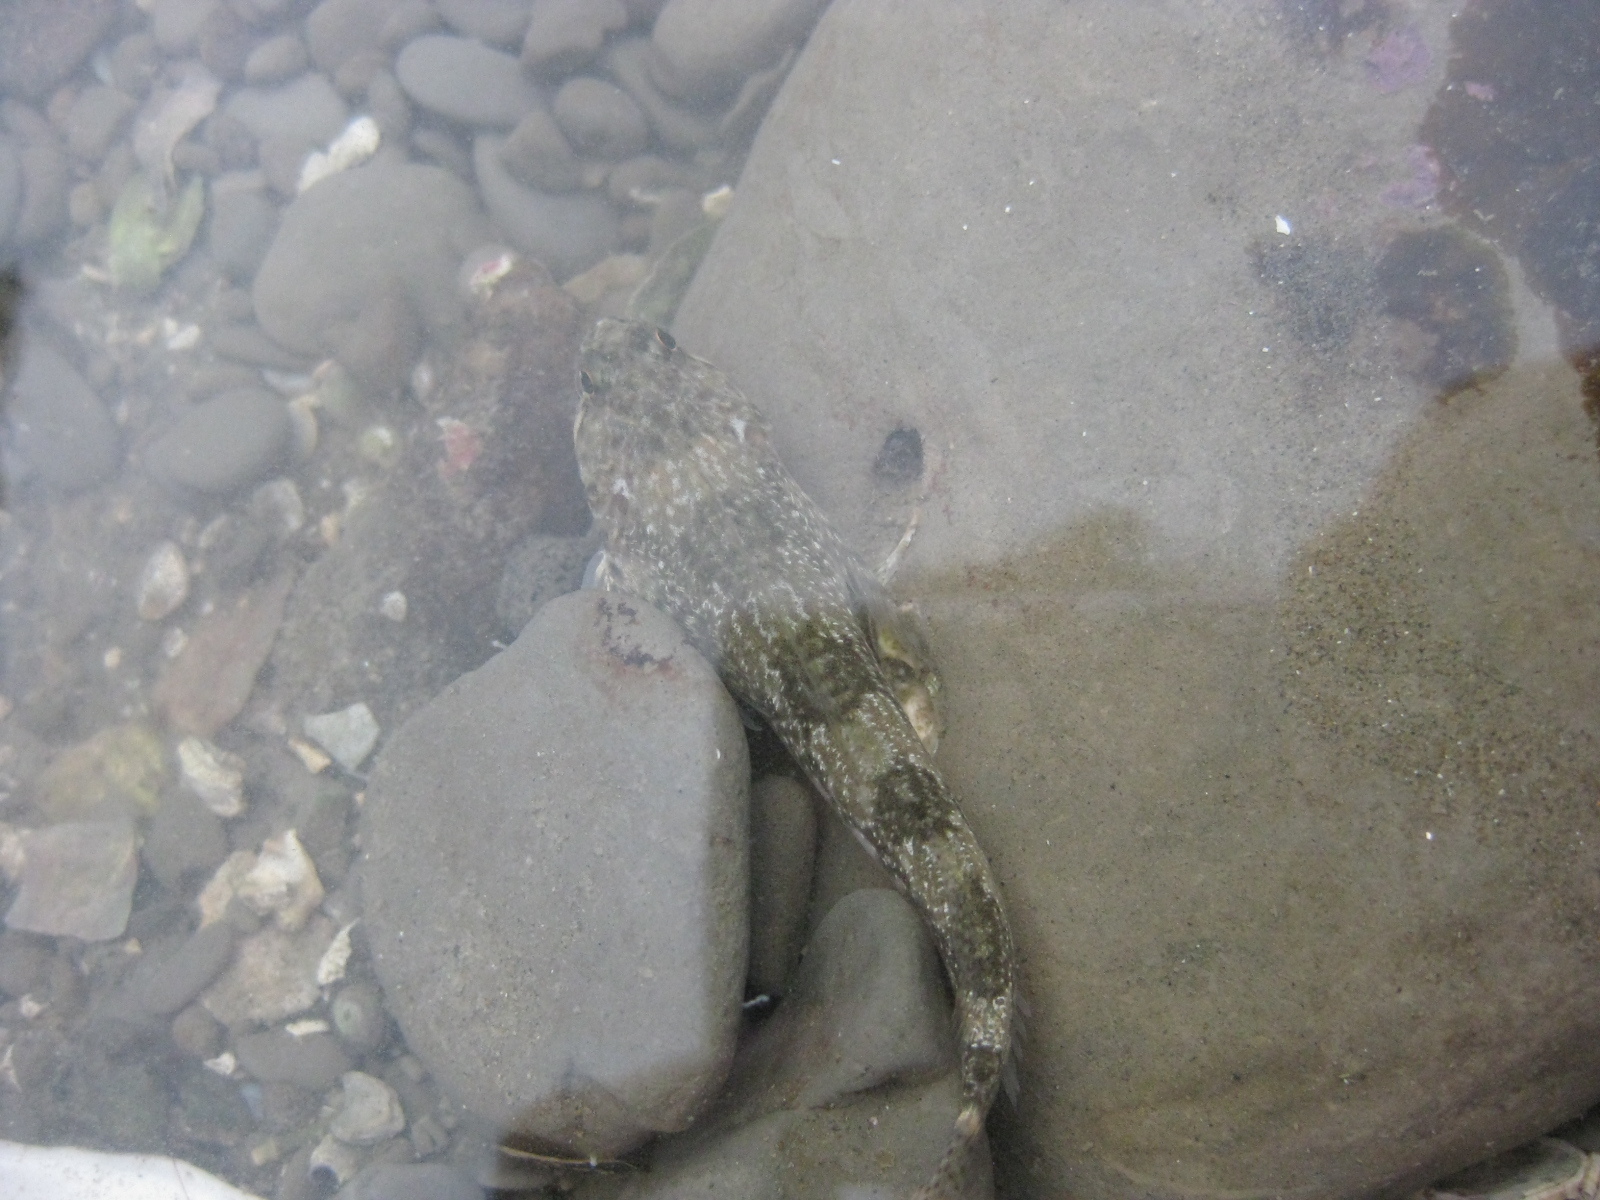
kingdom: Animalia
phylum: Chordata
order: Perciformes
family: Tripterygiidae
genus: Bellapiscis
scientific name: Bellapiscis medius
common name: Twister
